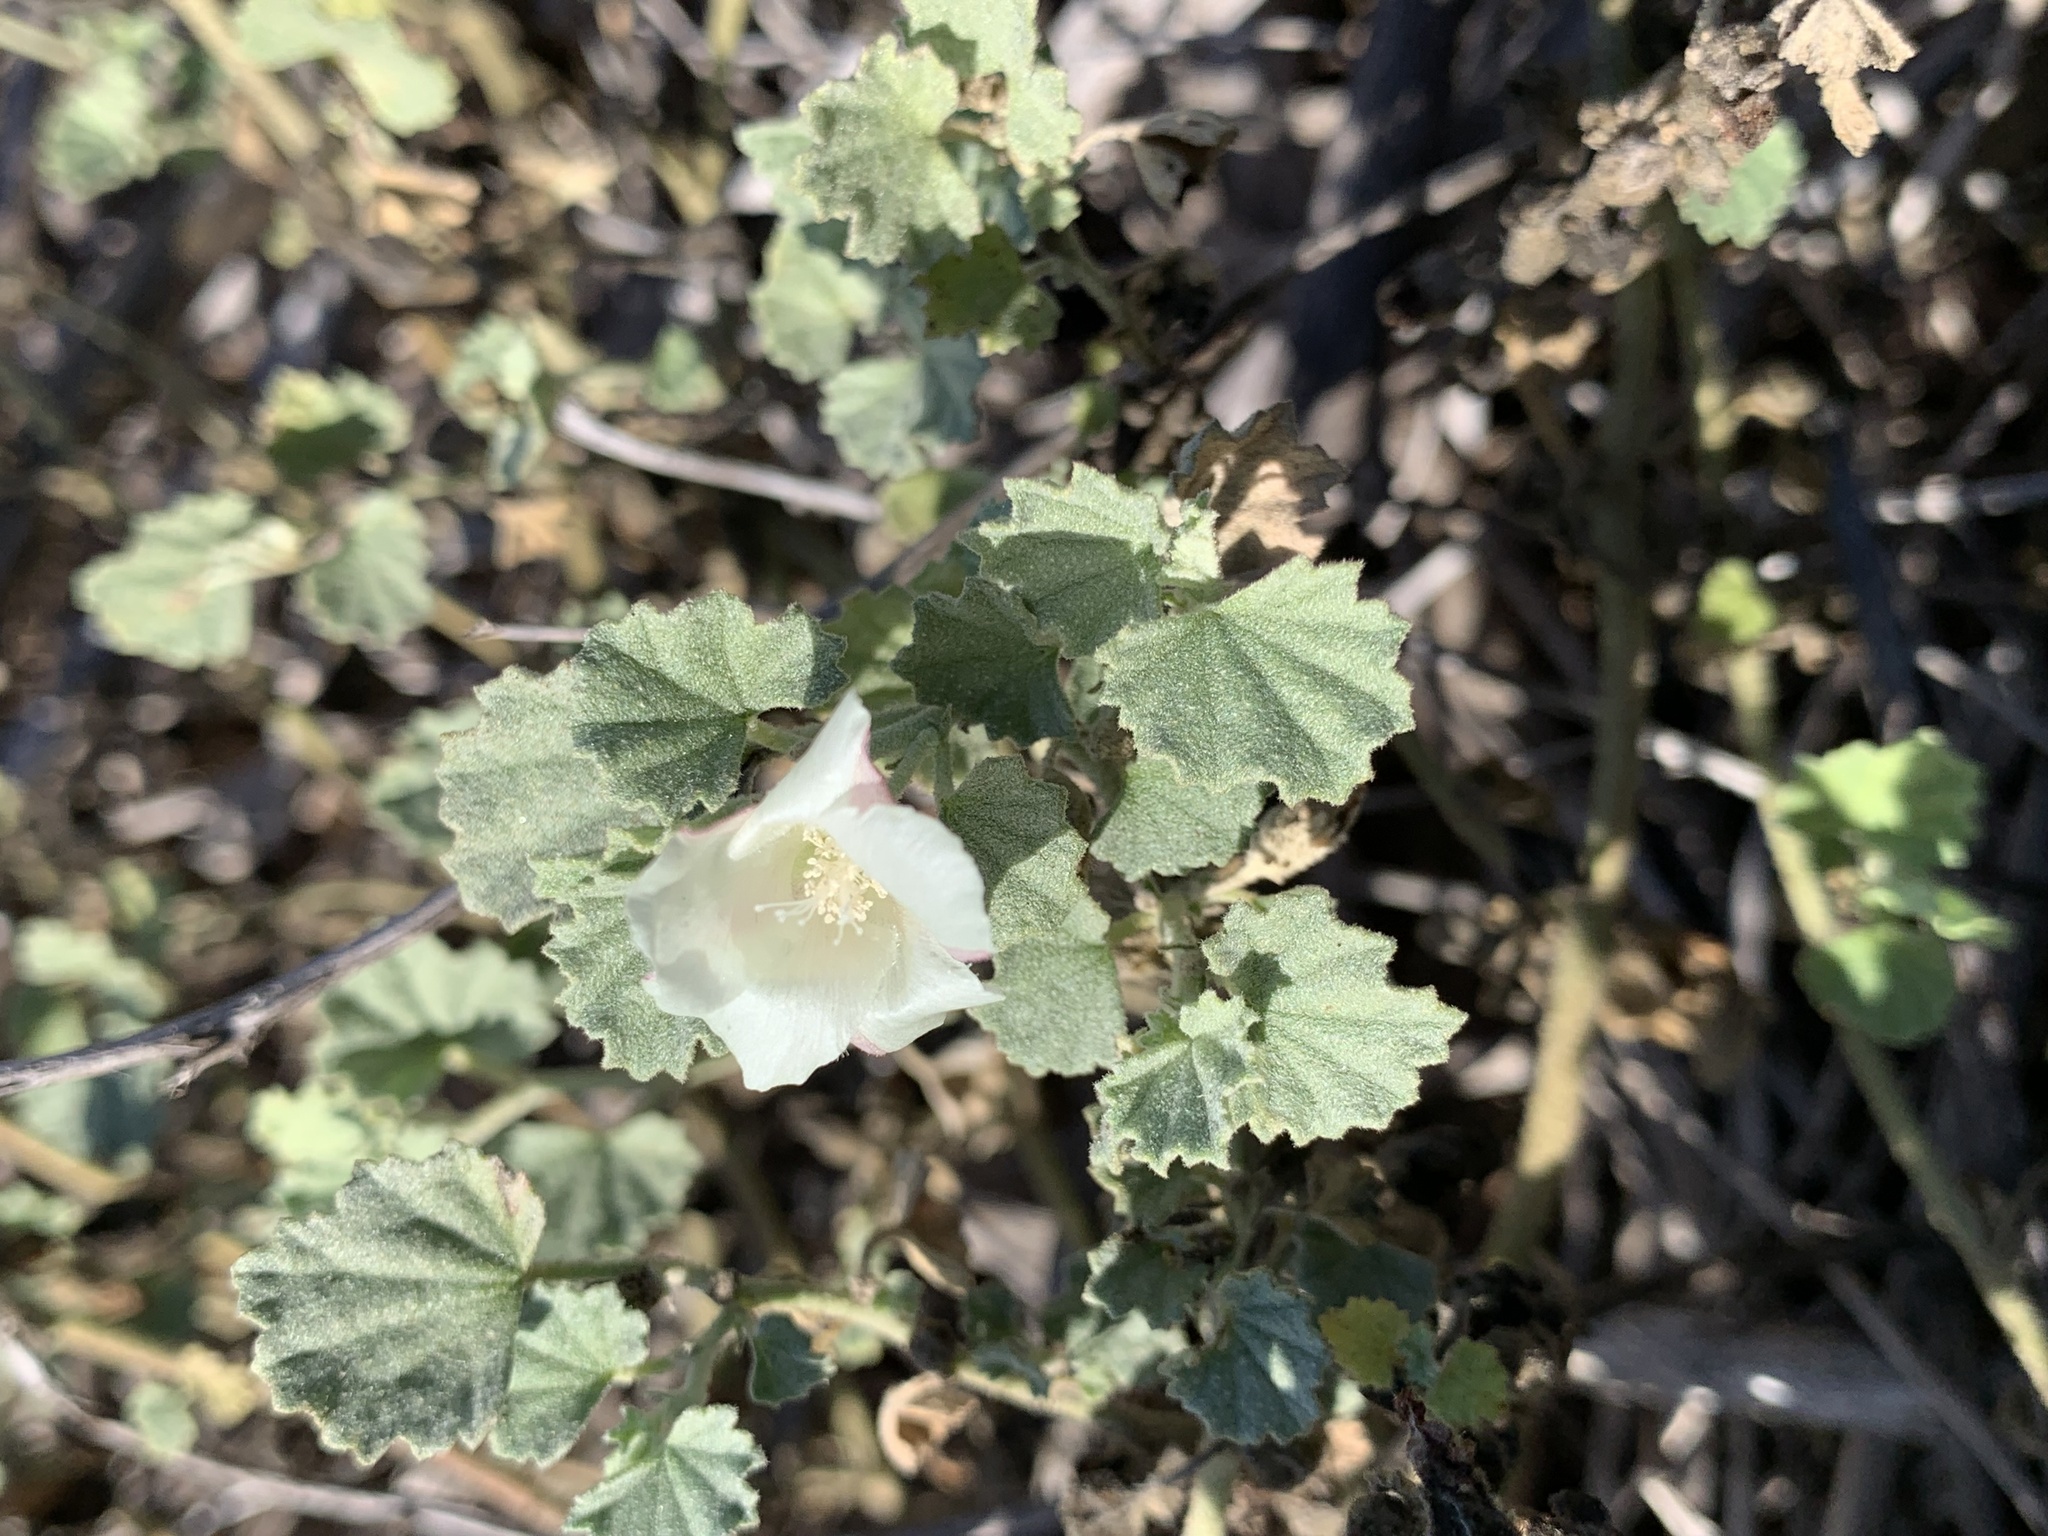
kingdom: Plantae
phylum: Tracheophyta
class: Magnoliopsida
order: Malvales
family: Malvaceae
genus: Malvella
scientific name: Malvella leprosa
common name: Alkali-mallow
